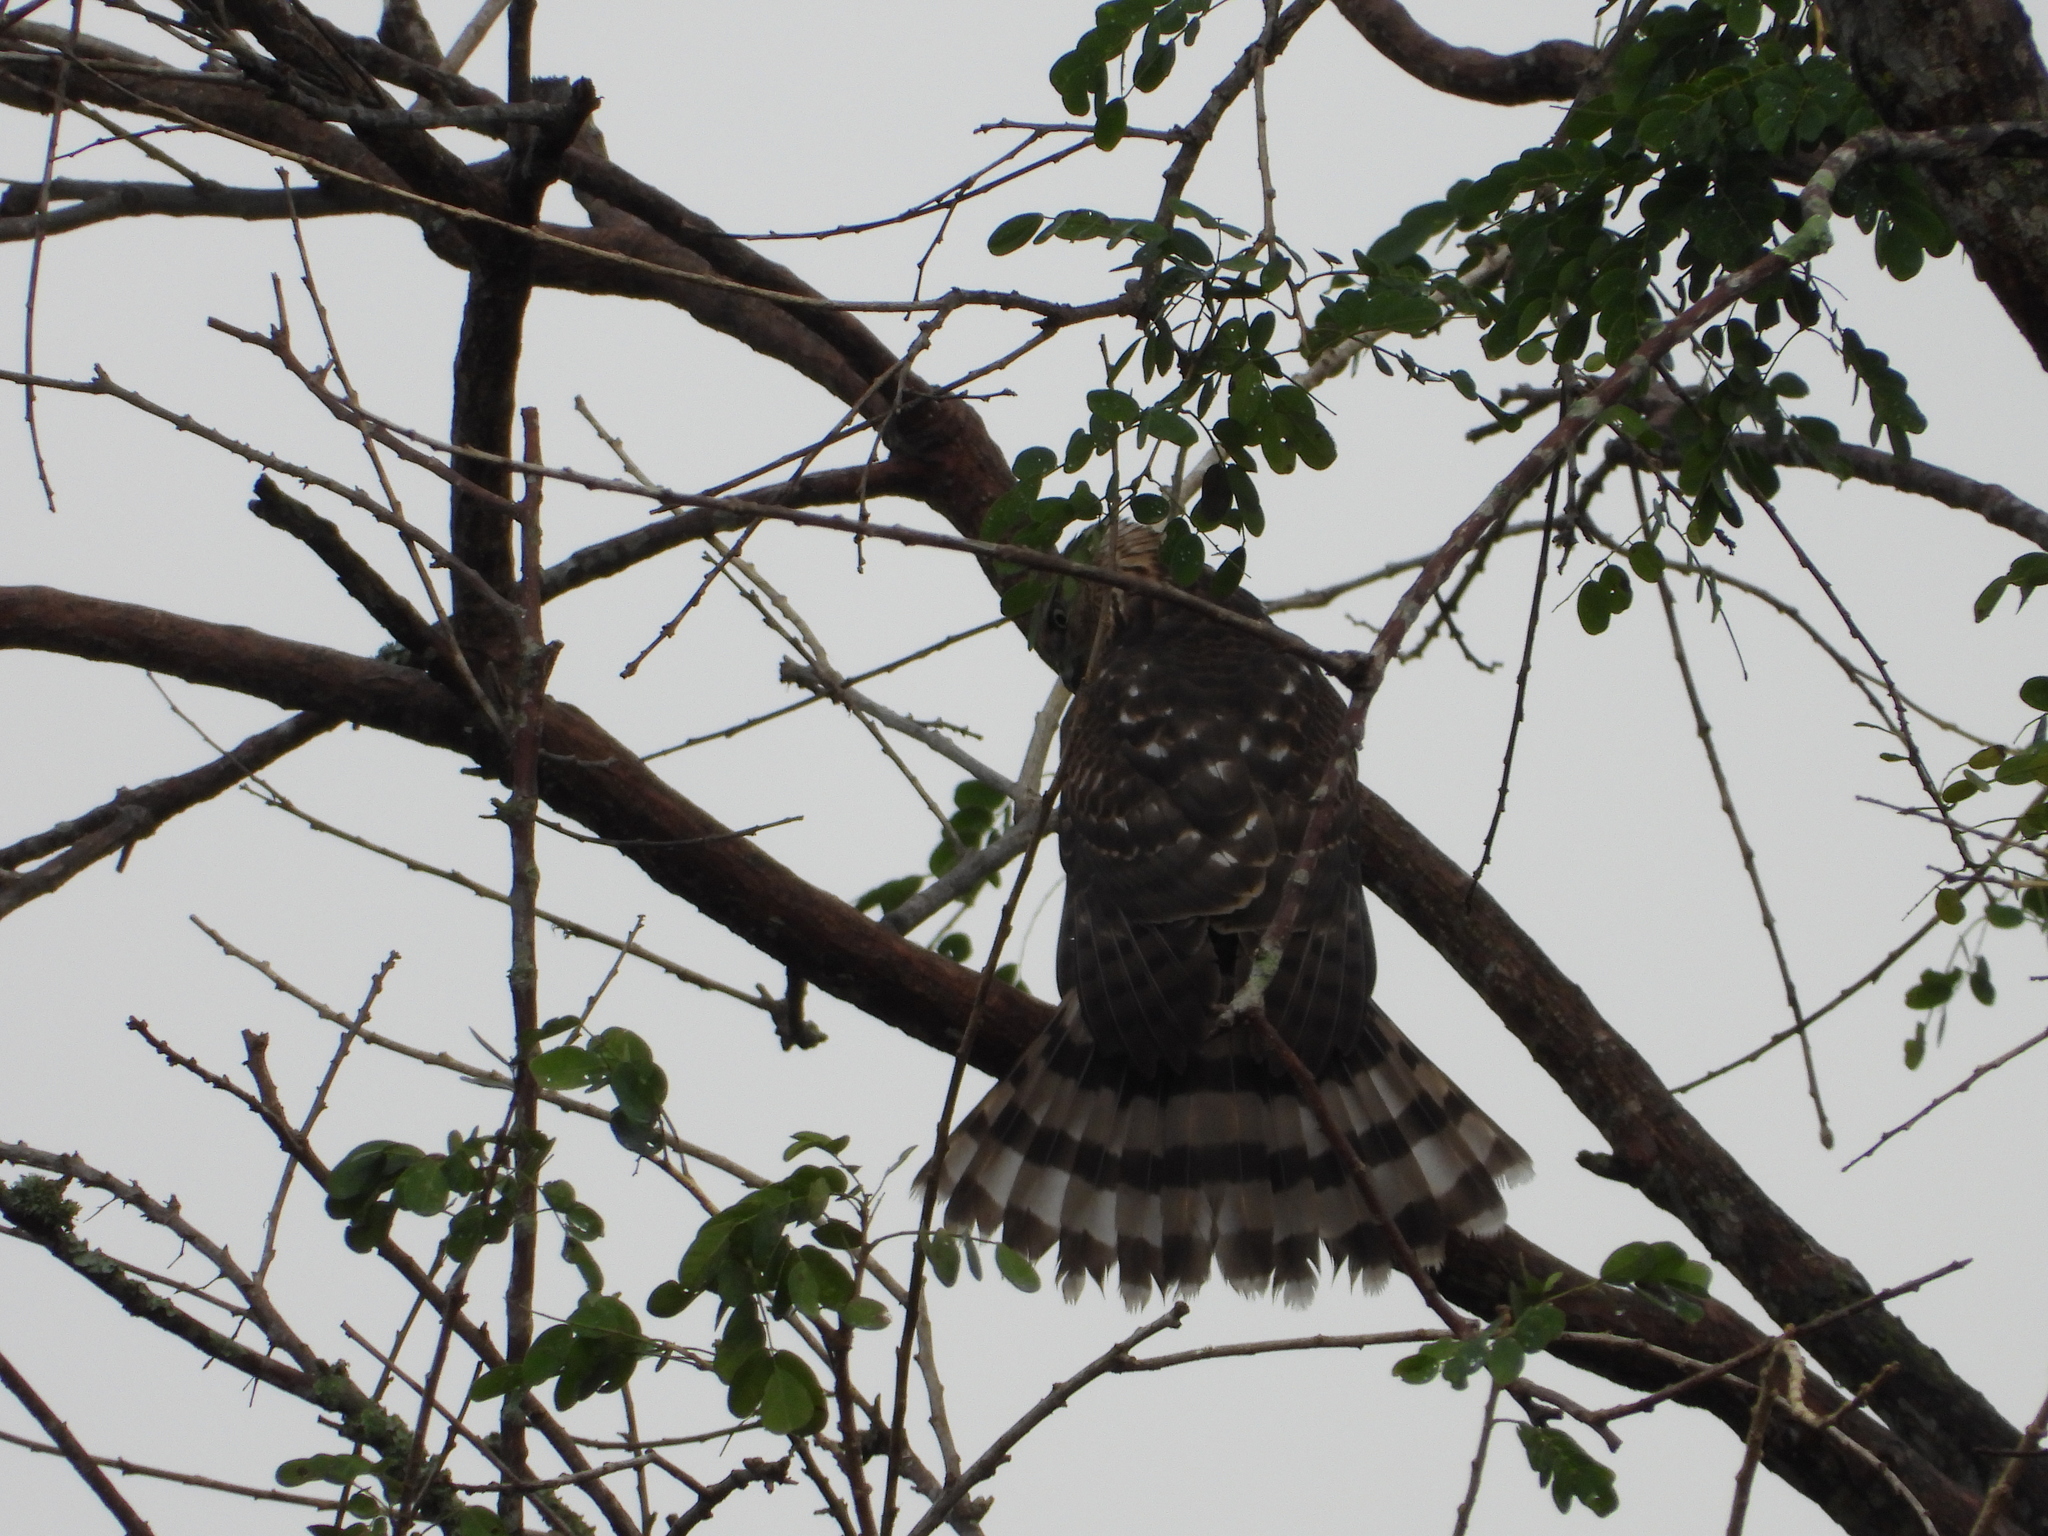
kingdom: Animalia
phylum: Chordata
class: Aves
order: Accipitriformes
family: Accipitridae
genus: Accipiter
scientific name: Accipiter cooperii
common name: Cooper's hawk
